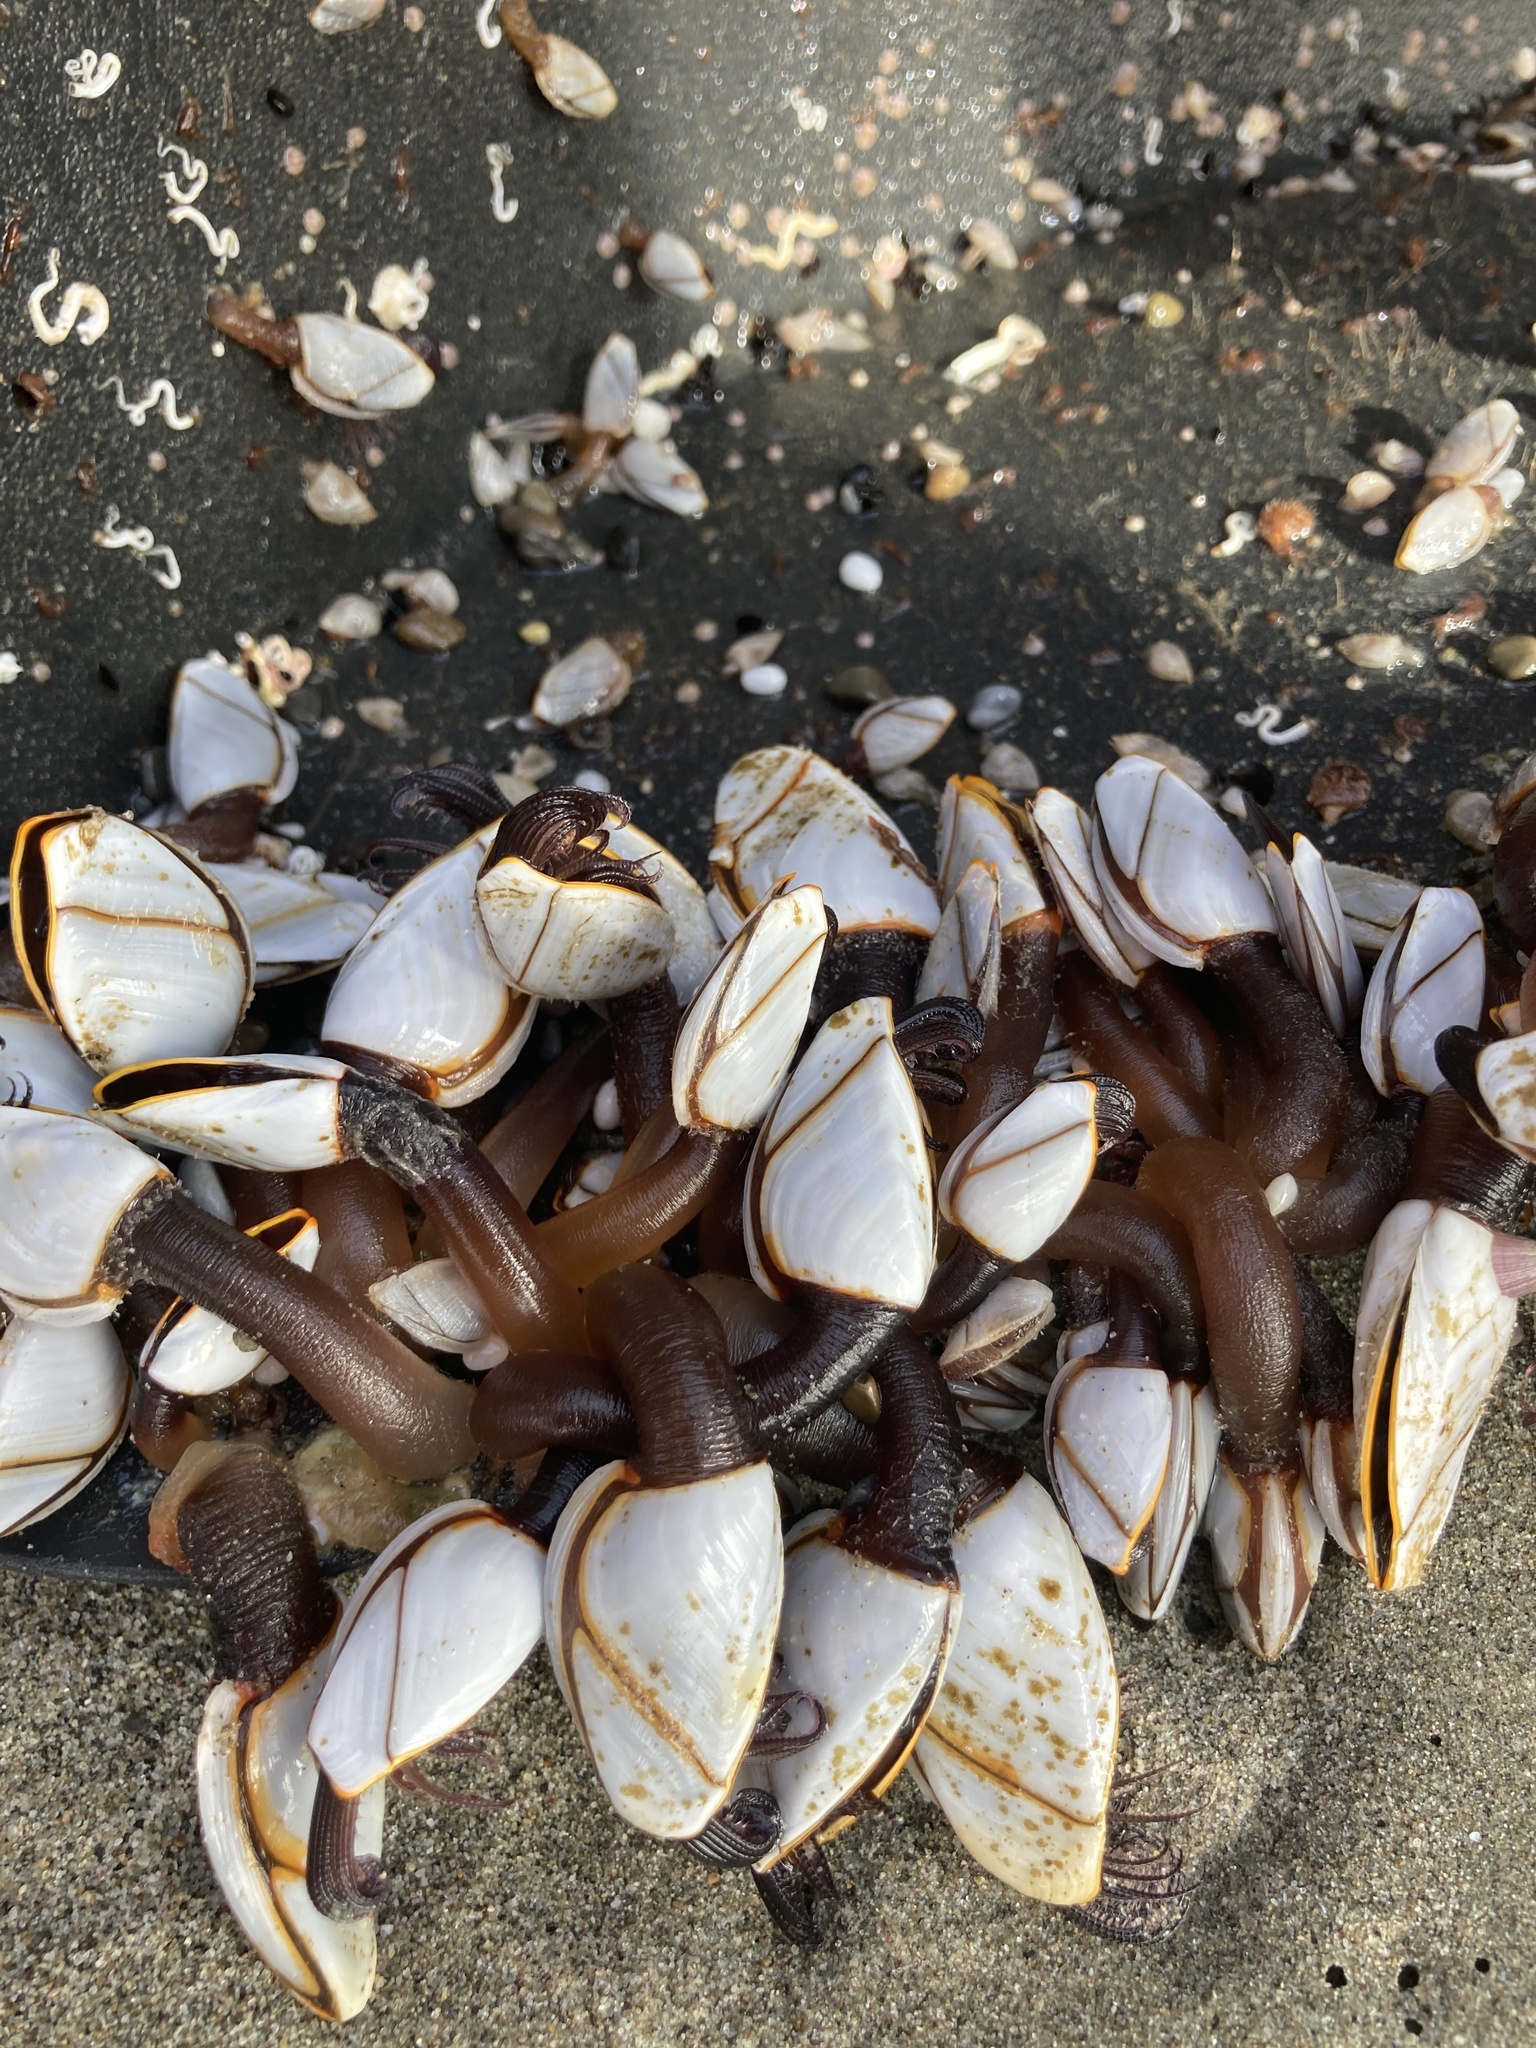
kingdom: Animalia
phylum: Arthropoda
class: Maxillopoda
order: Pedunculata
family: Lepadidae
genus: Lepas
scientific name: Lepas anatifera
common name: Common goose barnacle
